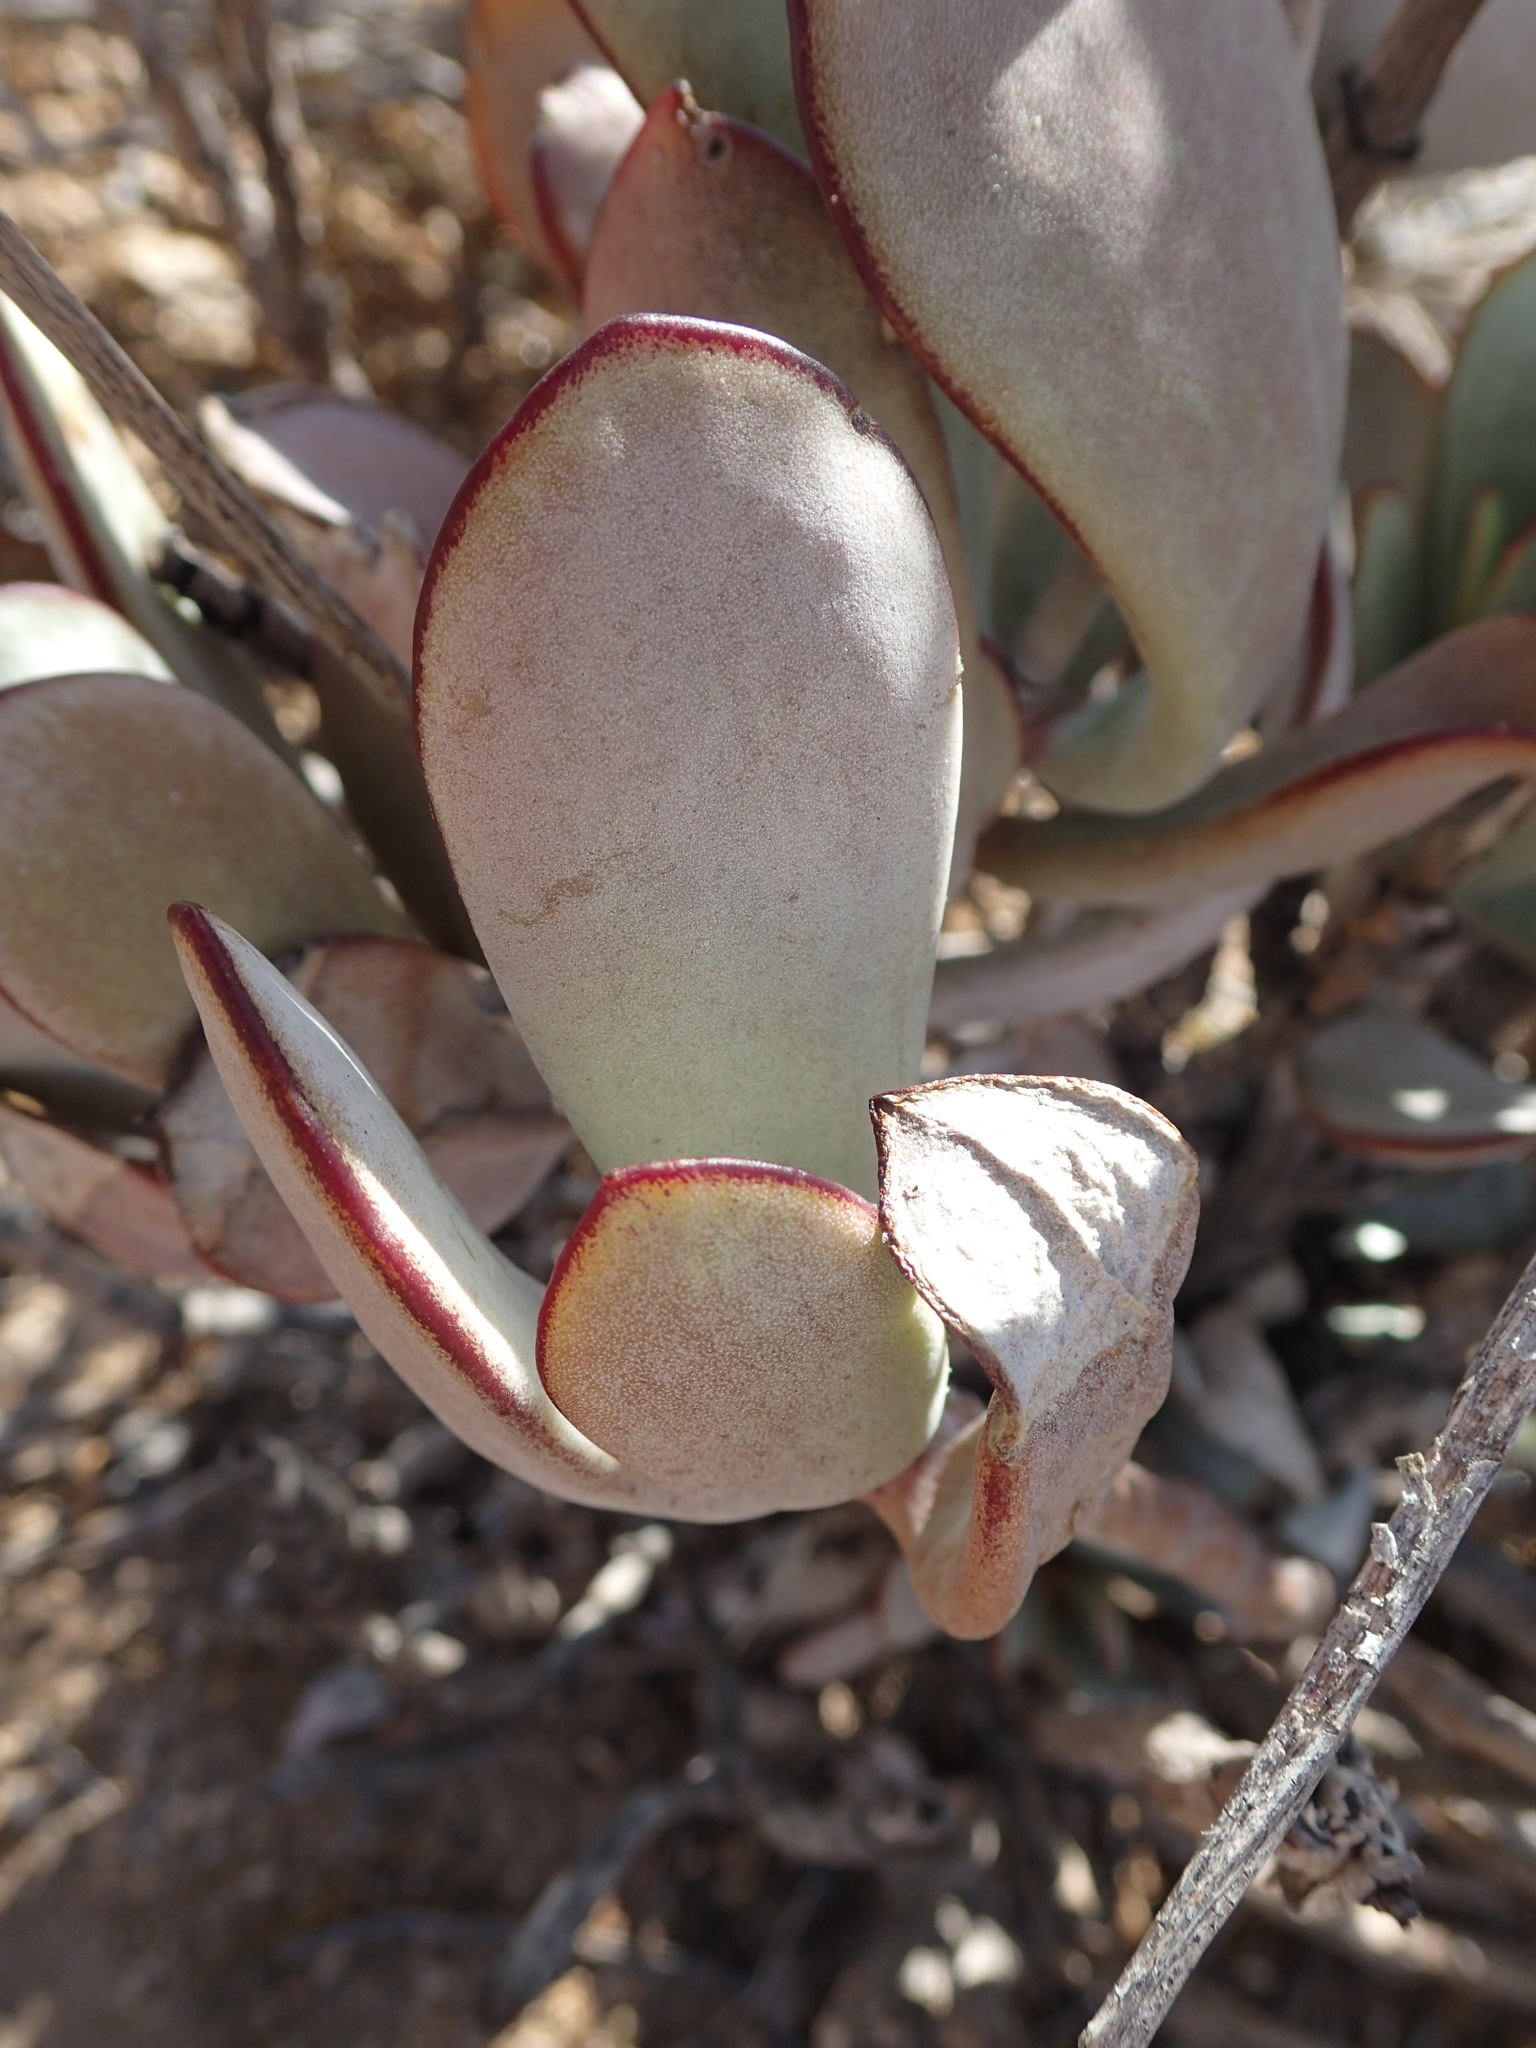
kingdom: Plantae
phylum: Tracheophyta
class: Magnoliopsida
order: Saxifragales
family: Crassulaceae
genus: Cotyledon
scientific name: Cotyledon orbiculata
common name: Pig's ear
